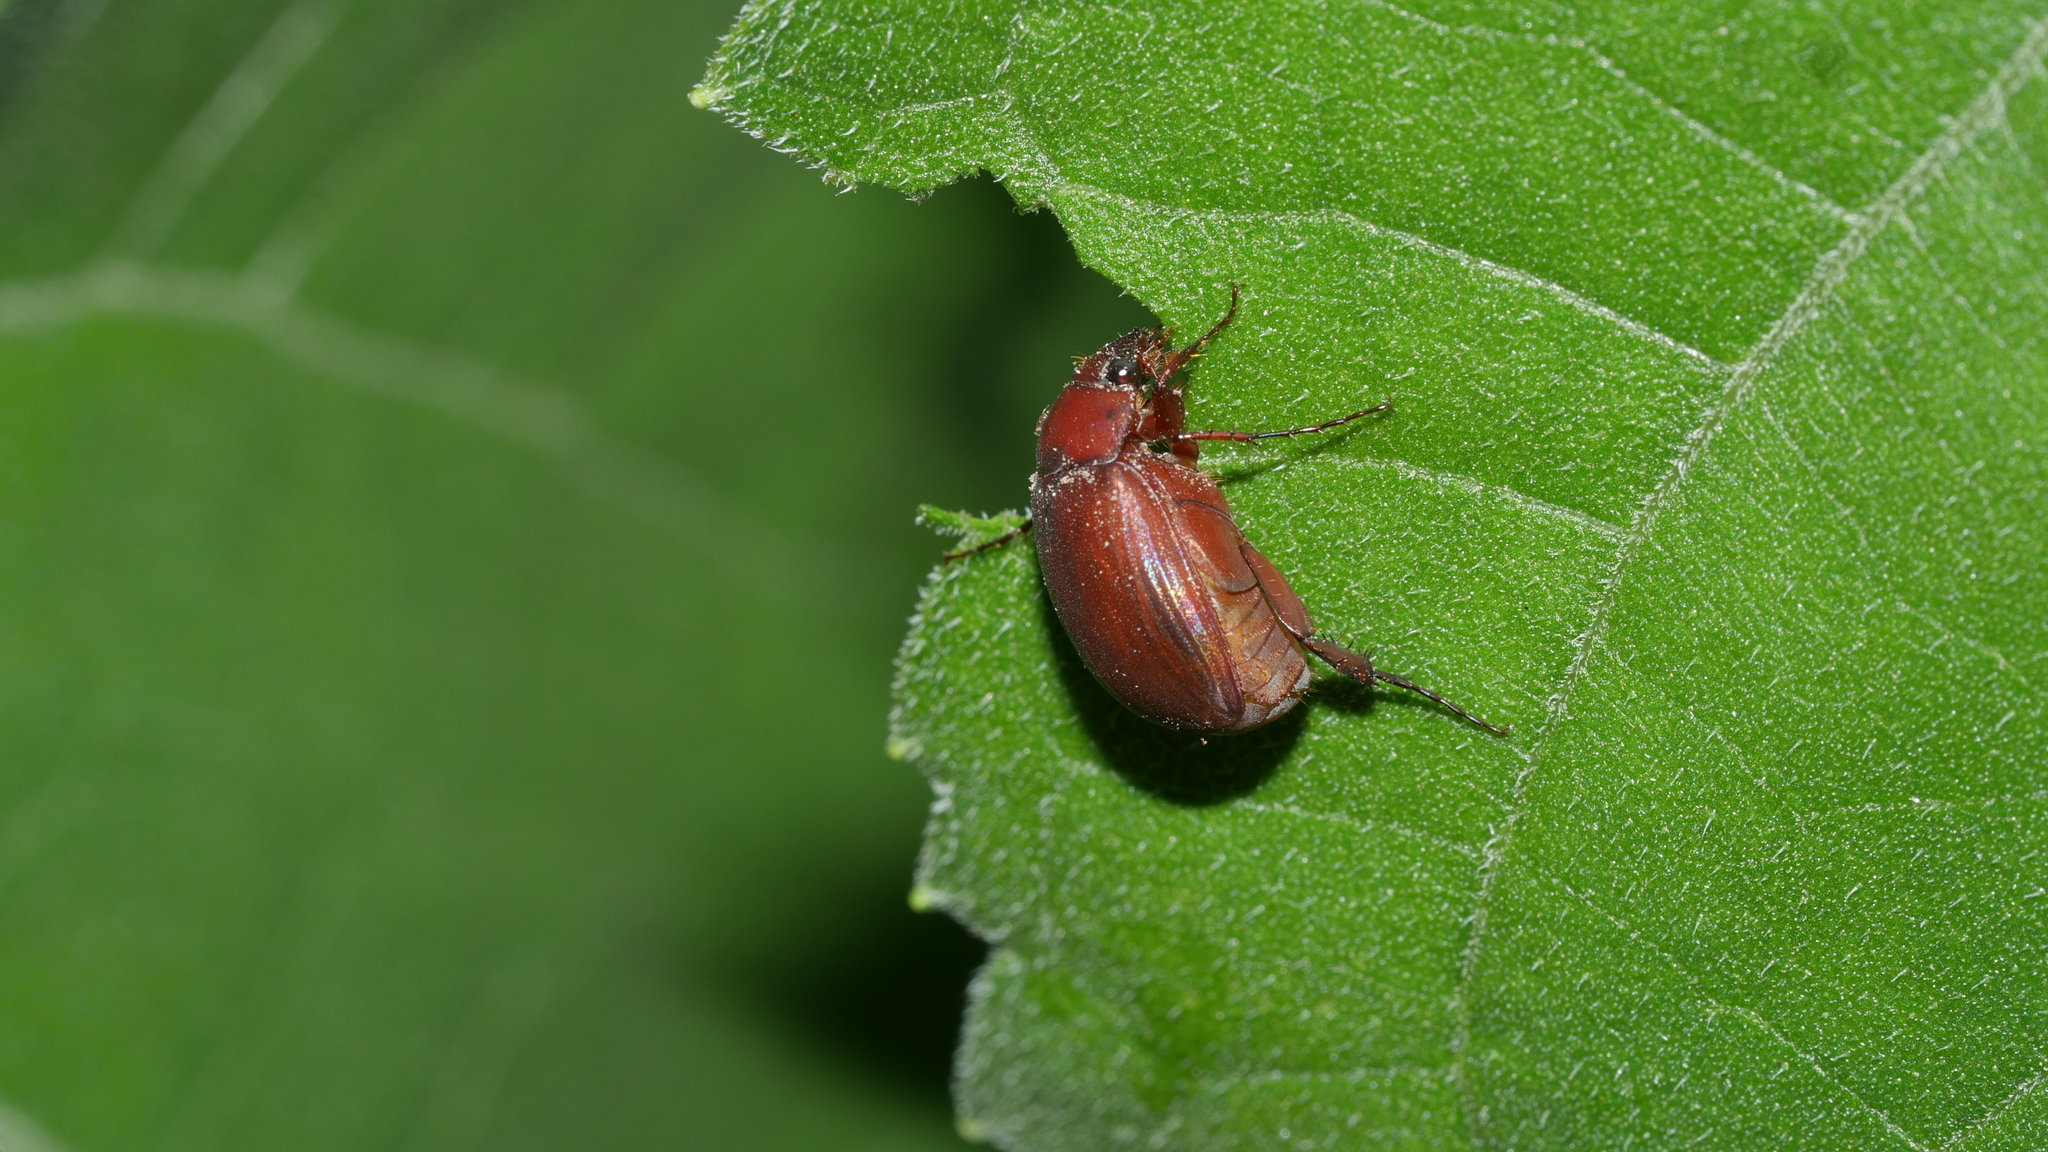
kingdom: Animalia
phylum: Arthropoda
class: Insecta
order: Coleoptera
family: Scarabaeidae
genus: Maladera
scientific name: Maladera formosae
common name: Asiatic garden beetle
